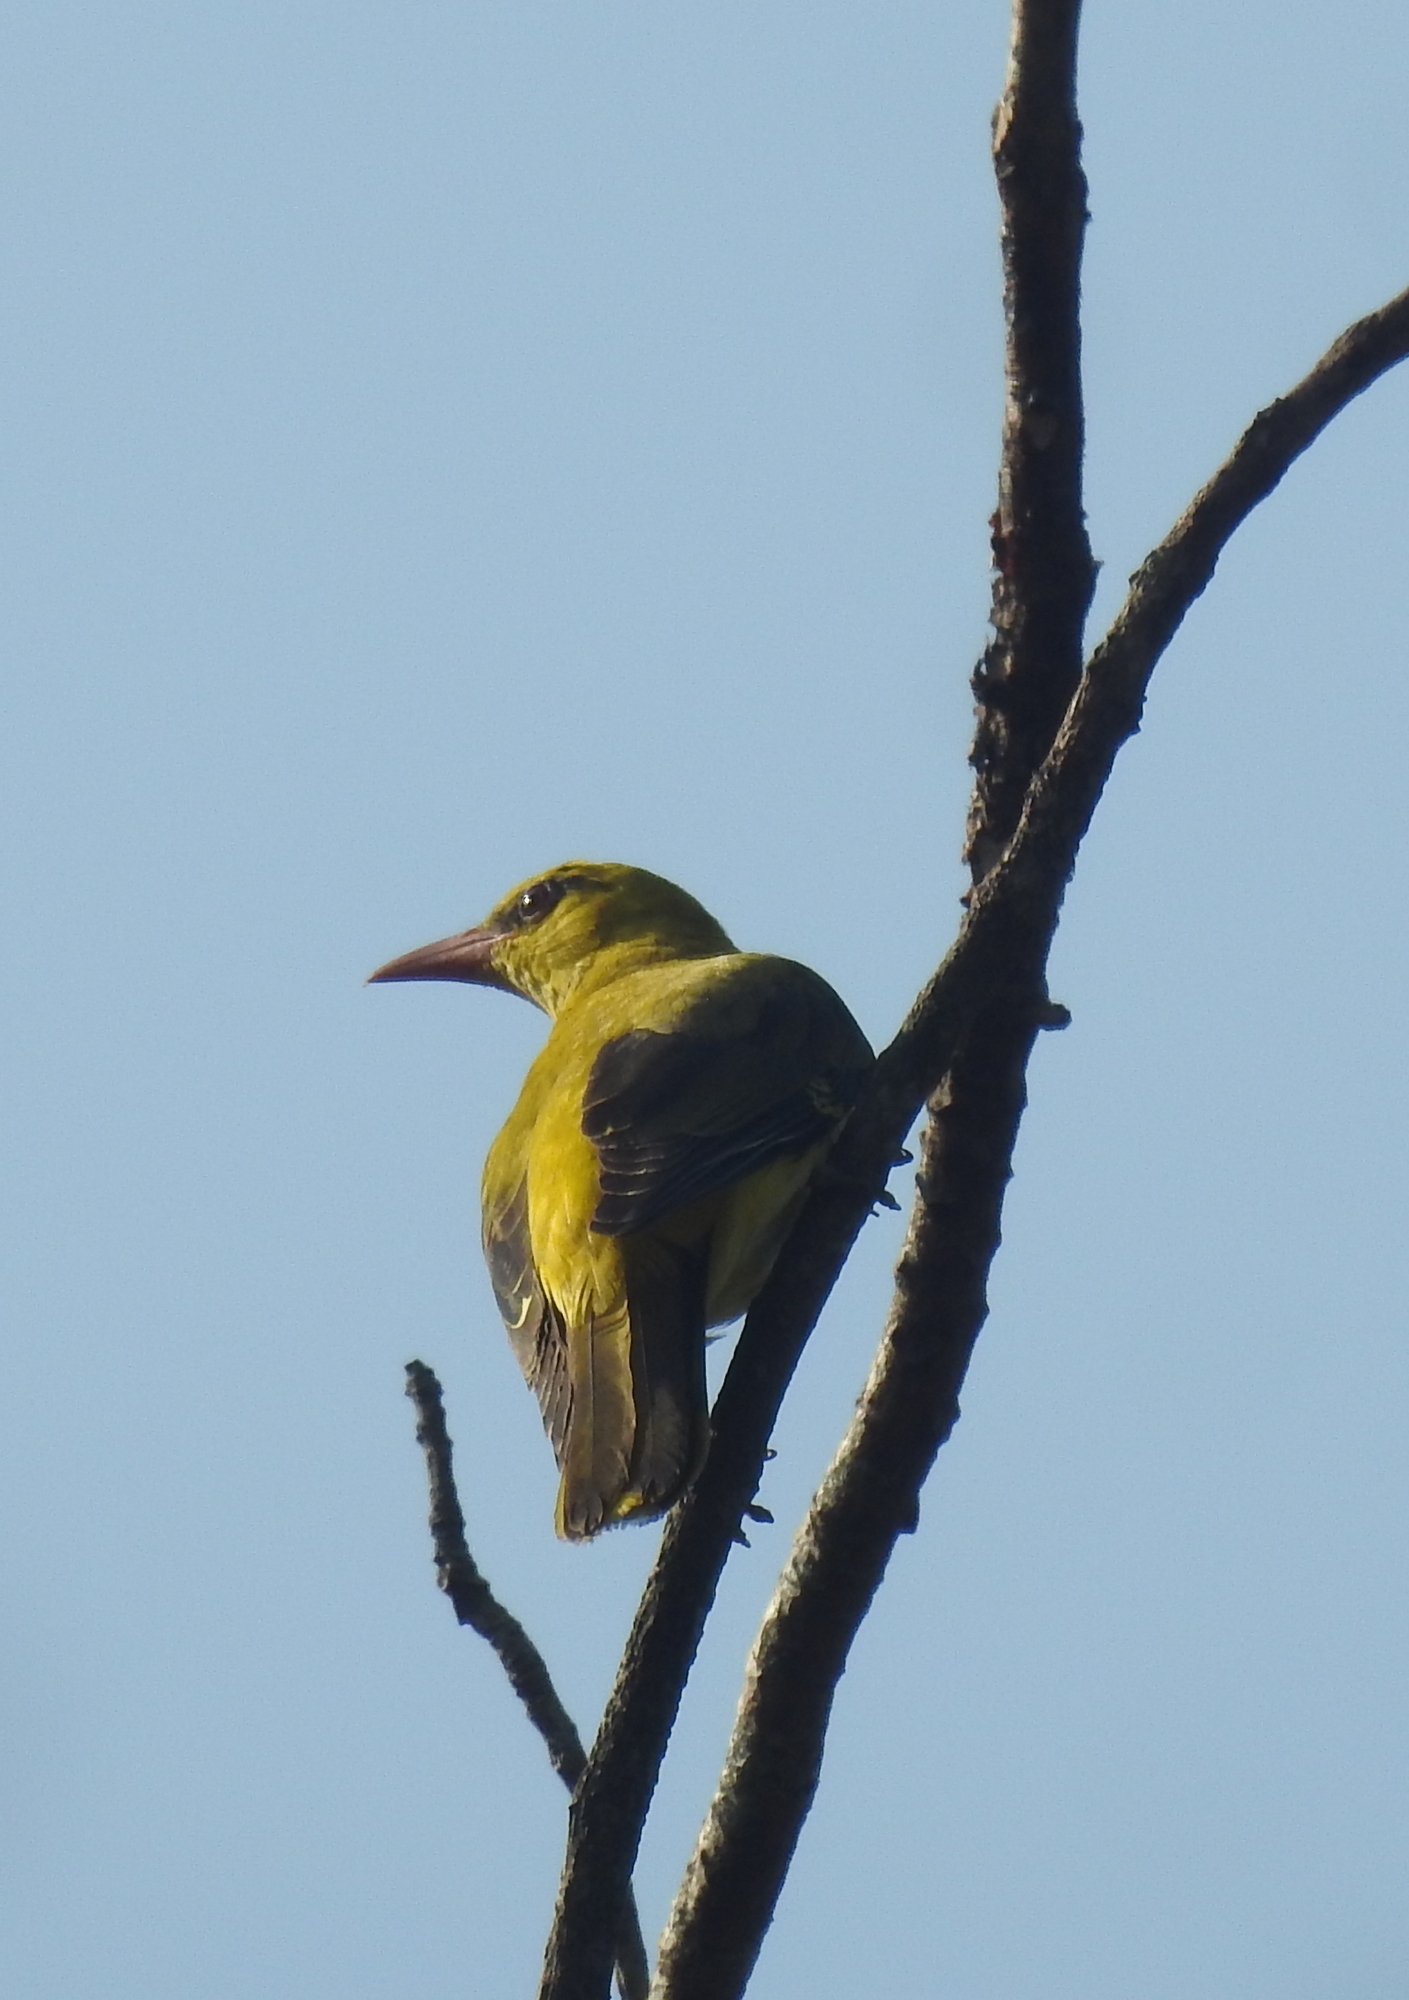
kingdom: Animalia
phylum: Chordata
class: Aves
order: Passeriformes
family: Oriolidae
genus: Oriolus
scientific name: Oriolus kundoo
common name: Indian golden oriole
